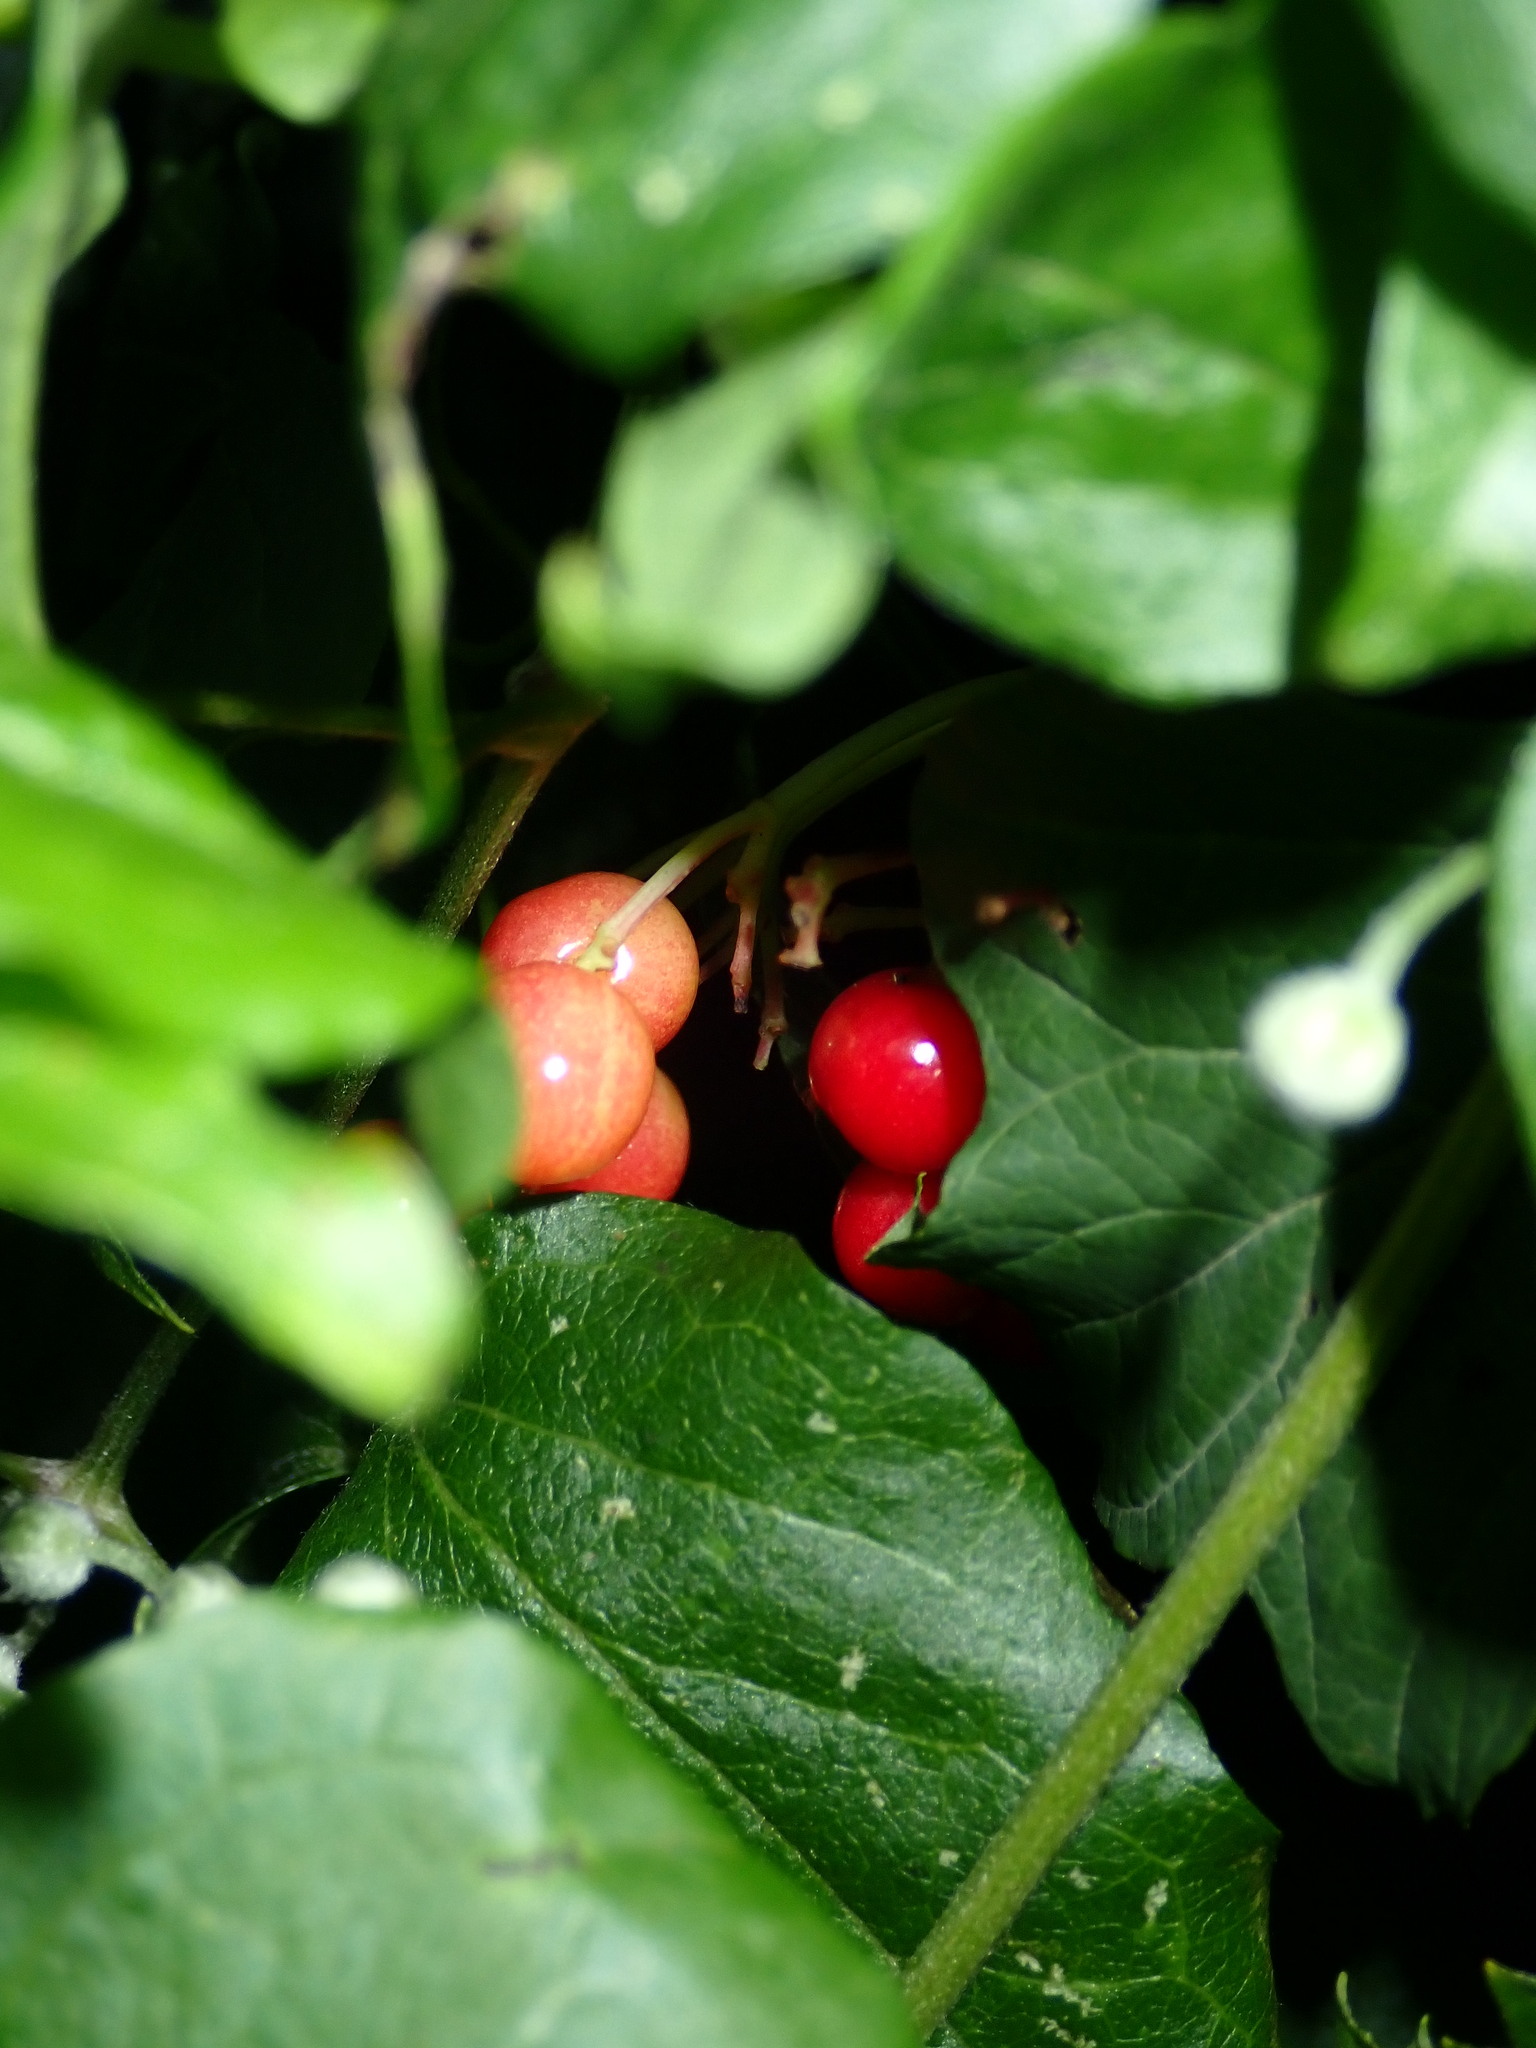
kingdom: Plantae
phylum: Tracheophyta
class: Magnoliopsida
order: Dipsacales
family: Viburnaceae
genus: Viburnum
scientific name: Viburnum opulus
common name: Guelder-rose
